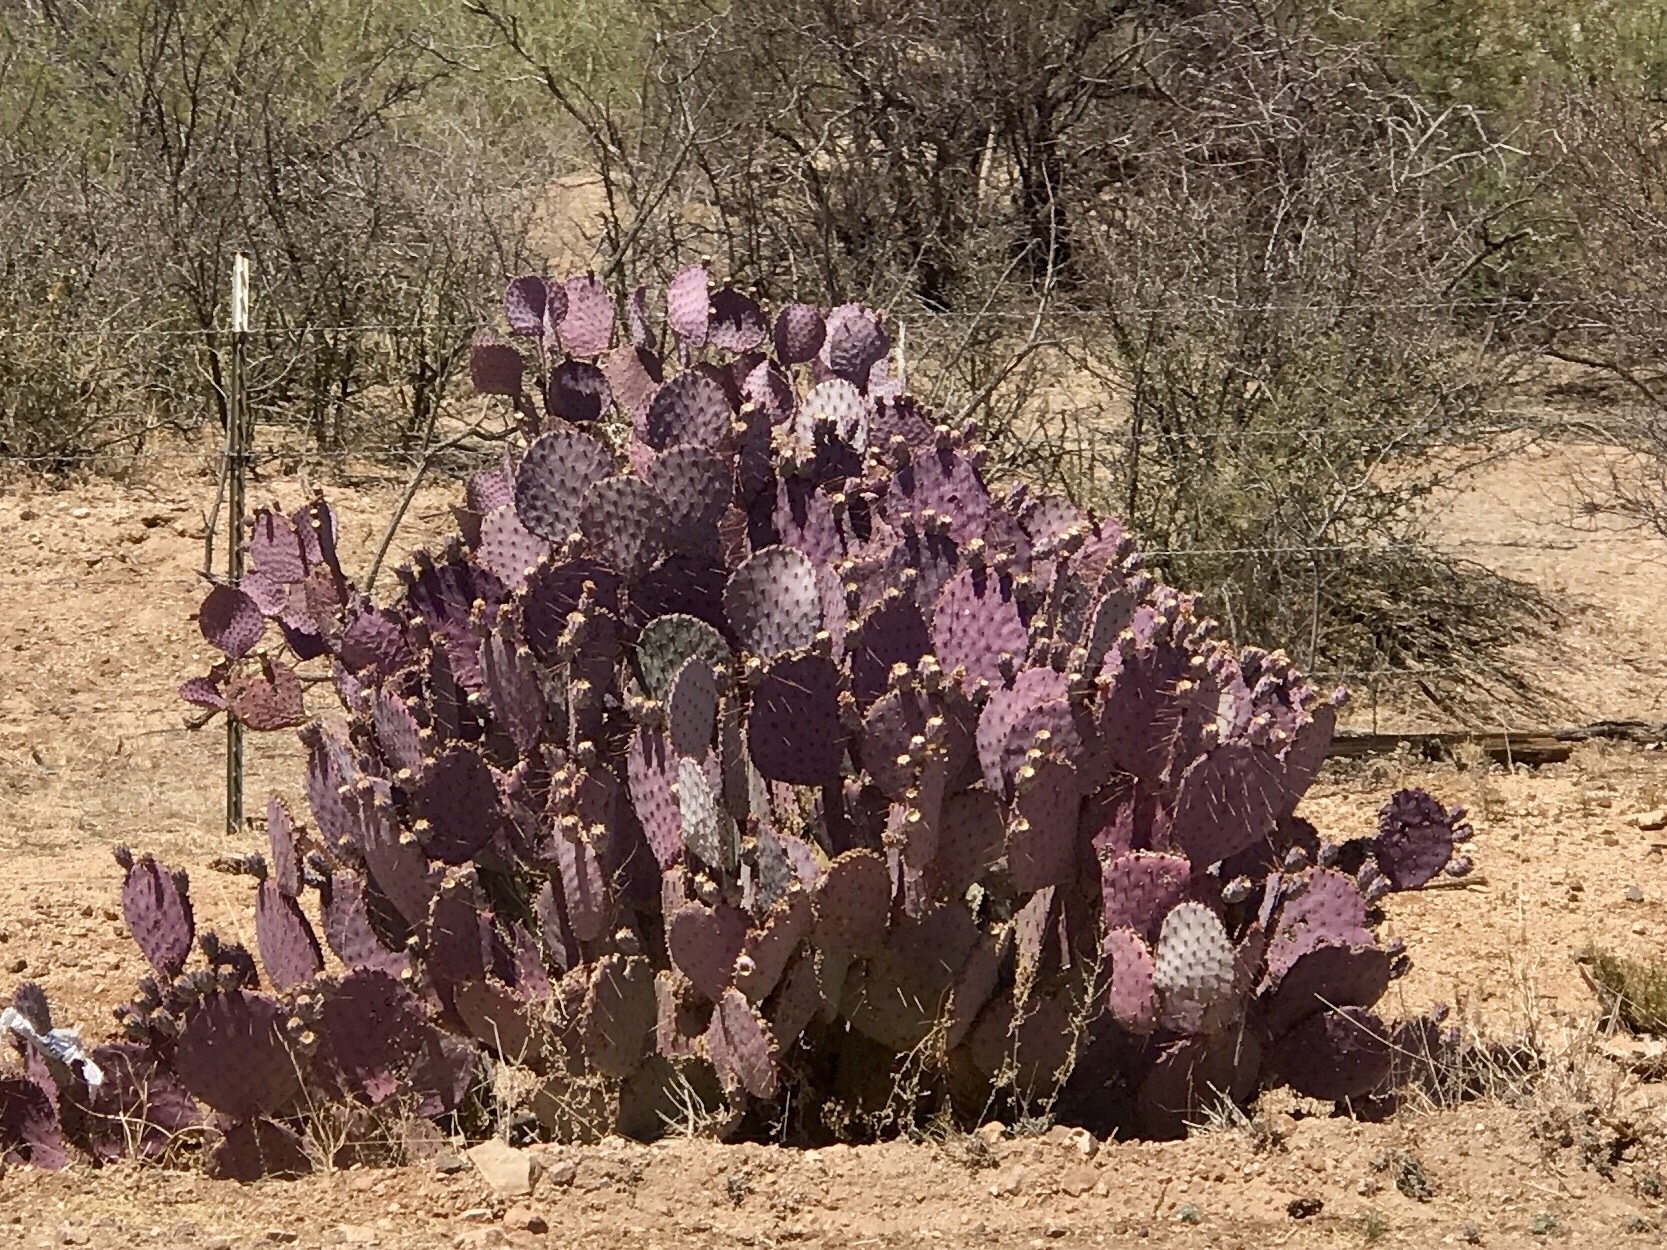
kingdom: Plantae
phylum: Tracheophyta
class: Magnoliopsida
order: Caryophyllales
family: Cactaceae
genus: Opuntia
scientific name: Opuntia gosseliniana
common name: Violet prickly-pear
